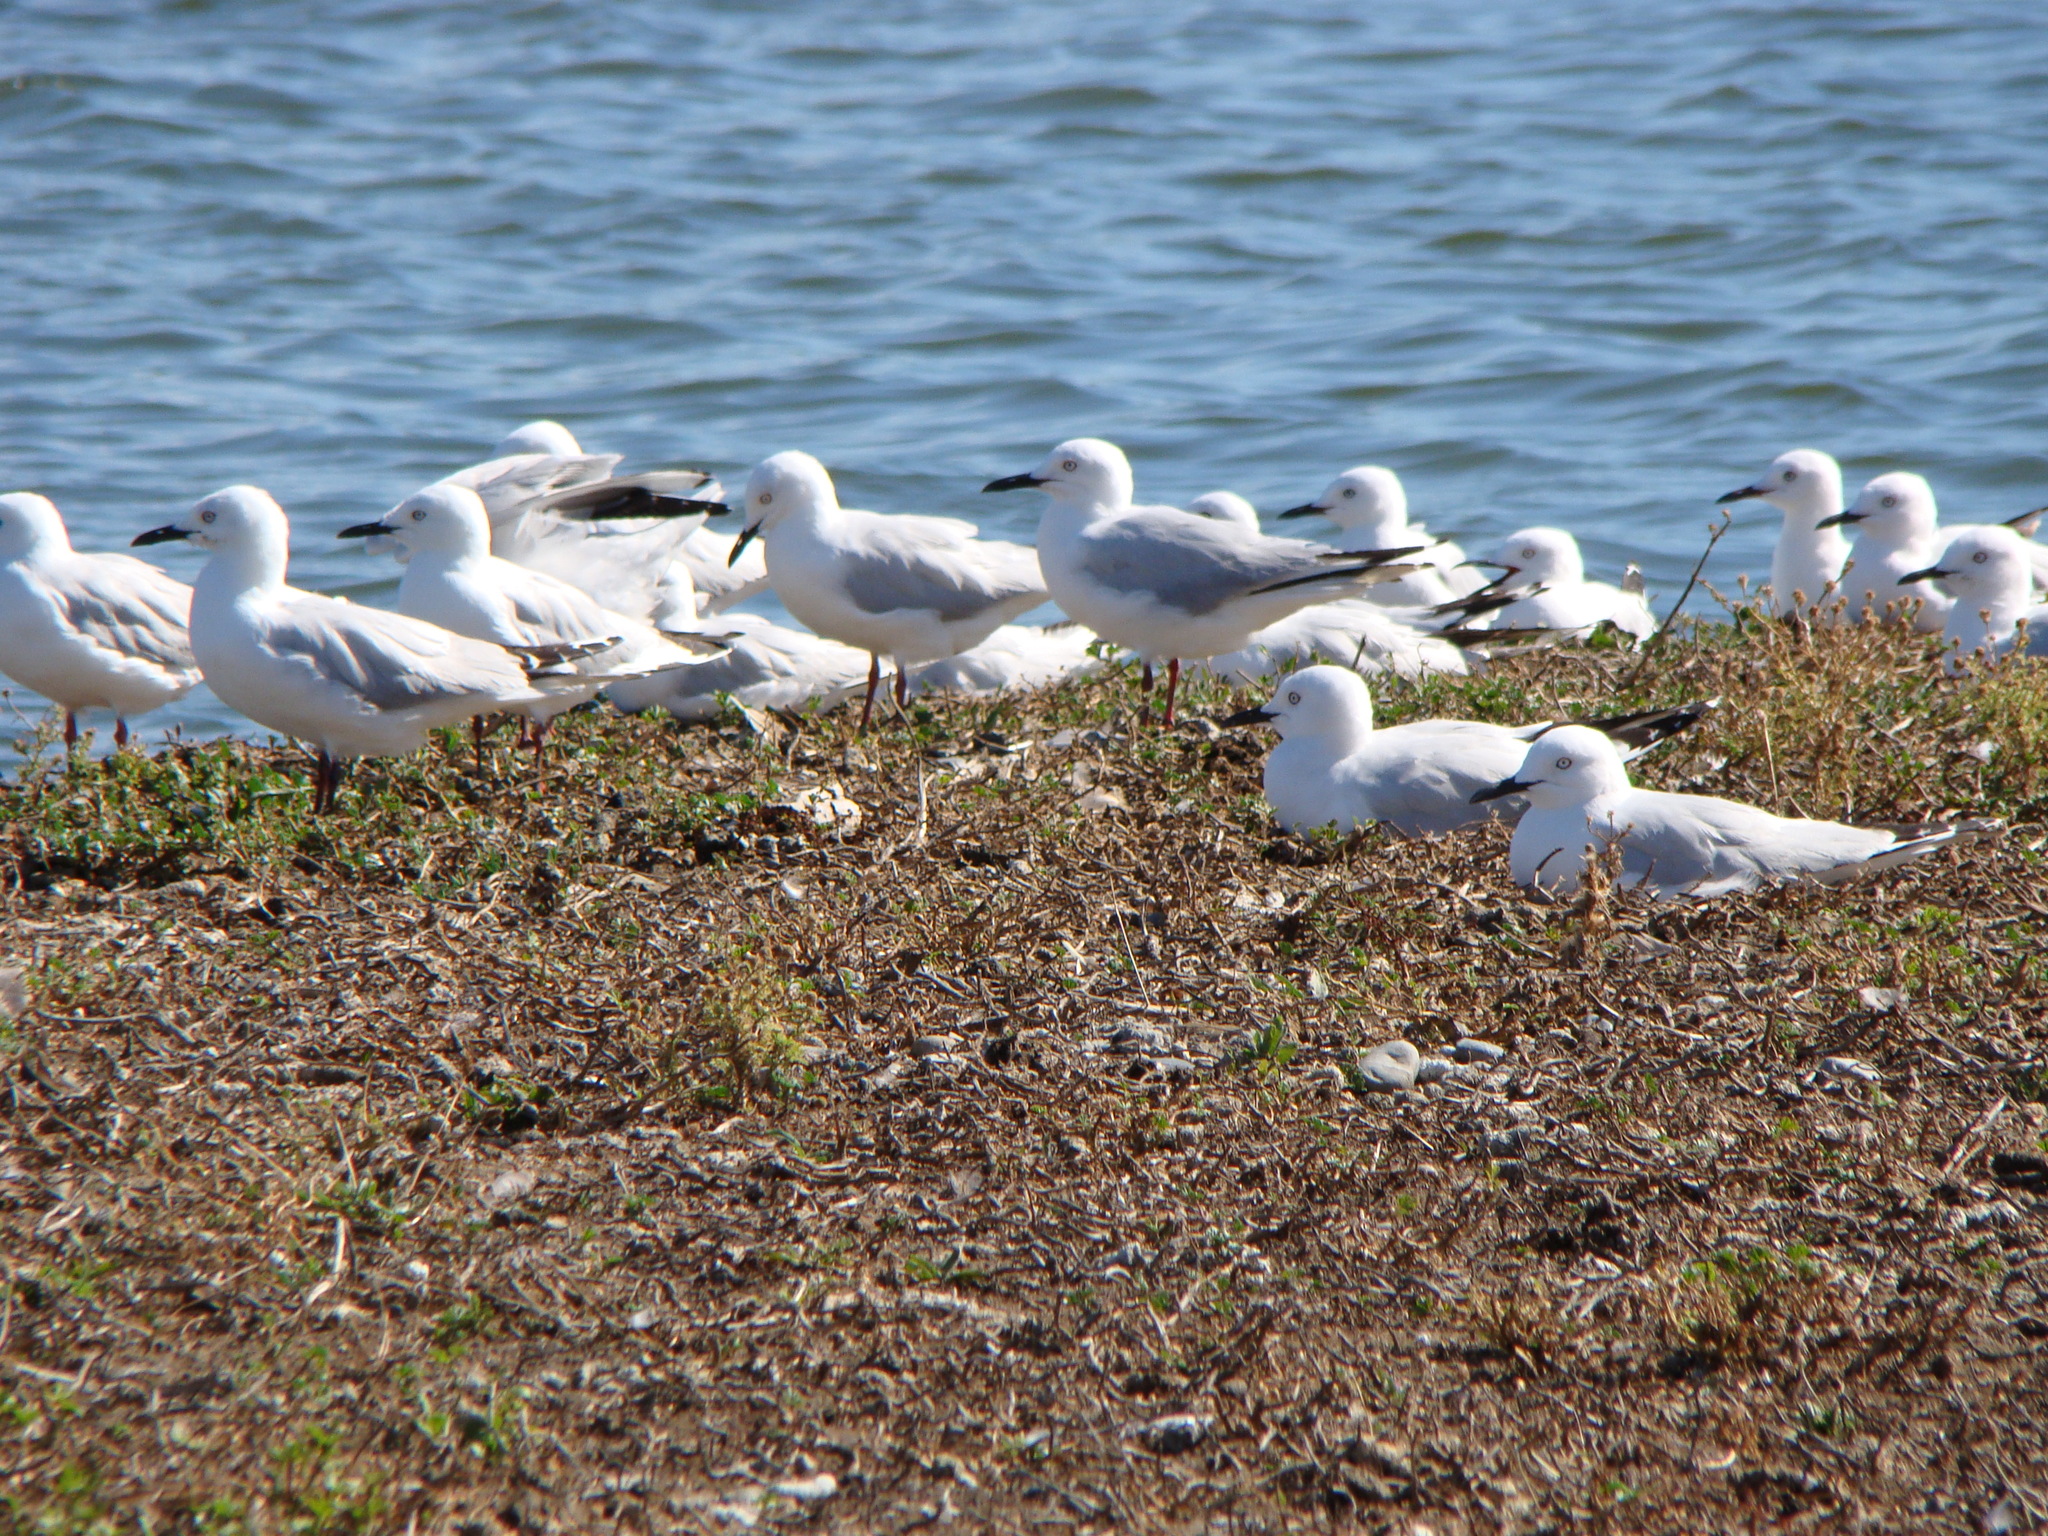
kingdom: Animalia
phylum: Chordata
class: Aves
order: Charadriiformes
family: Laridae
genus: Chroicocephalus
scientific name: Chroicocephalus bulleri
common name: Black-billed gull
